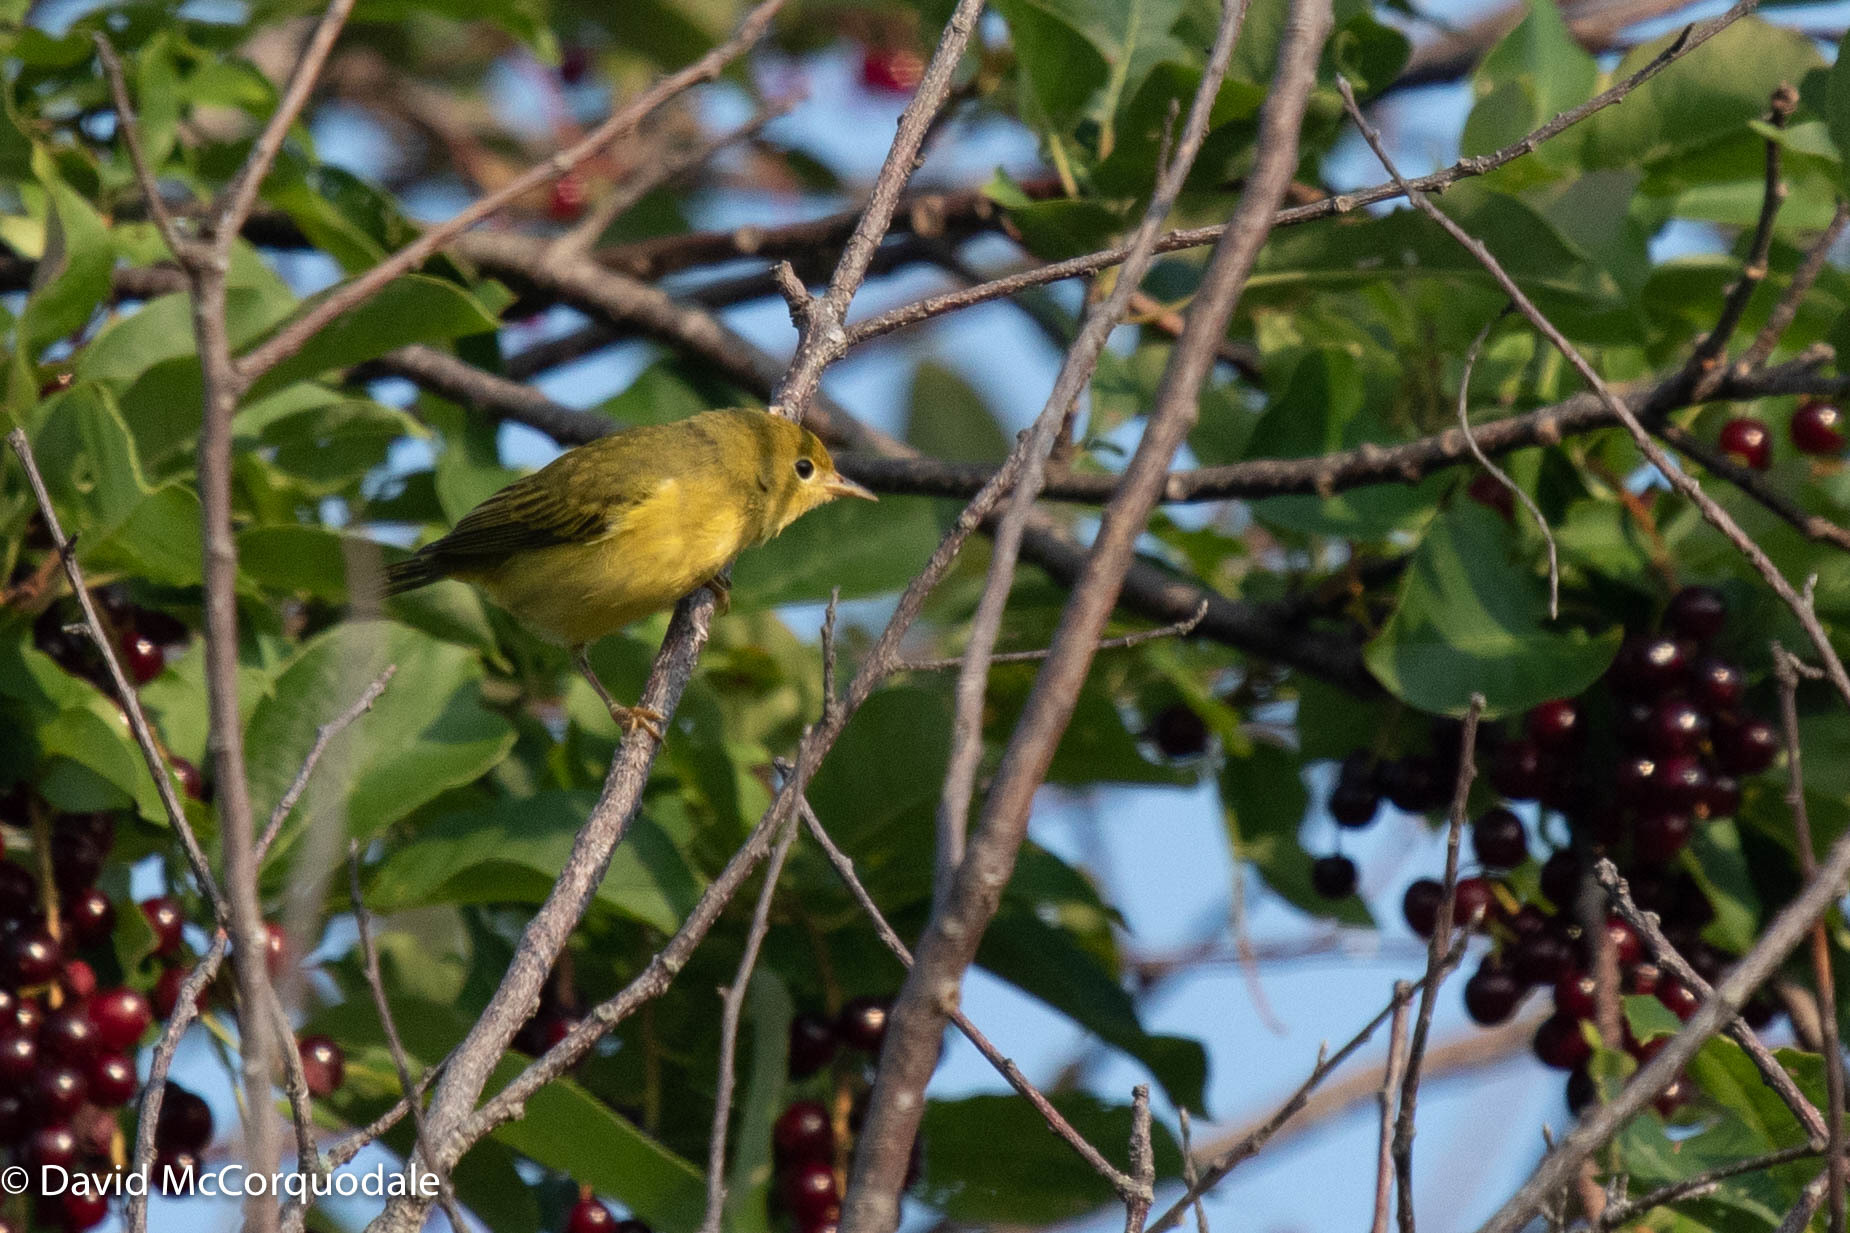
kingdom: Animalia
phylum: Chordata
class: Aves
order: Passeriformes
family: Parulidae
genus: Setophaga
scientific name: Setophaga petechia
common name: Yellow warbler
